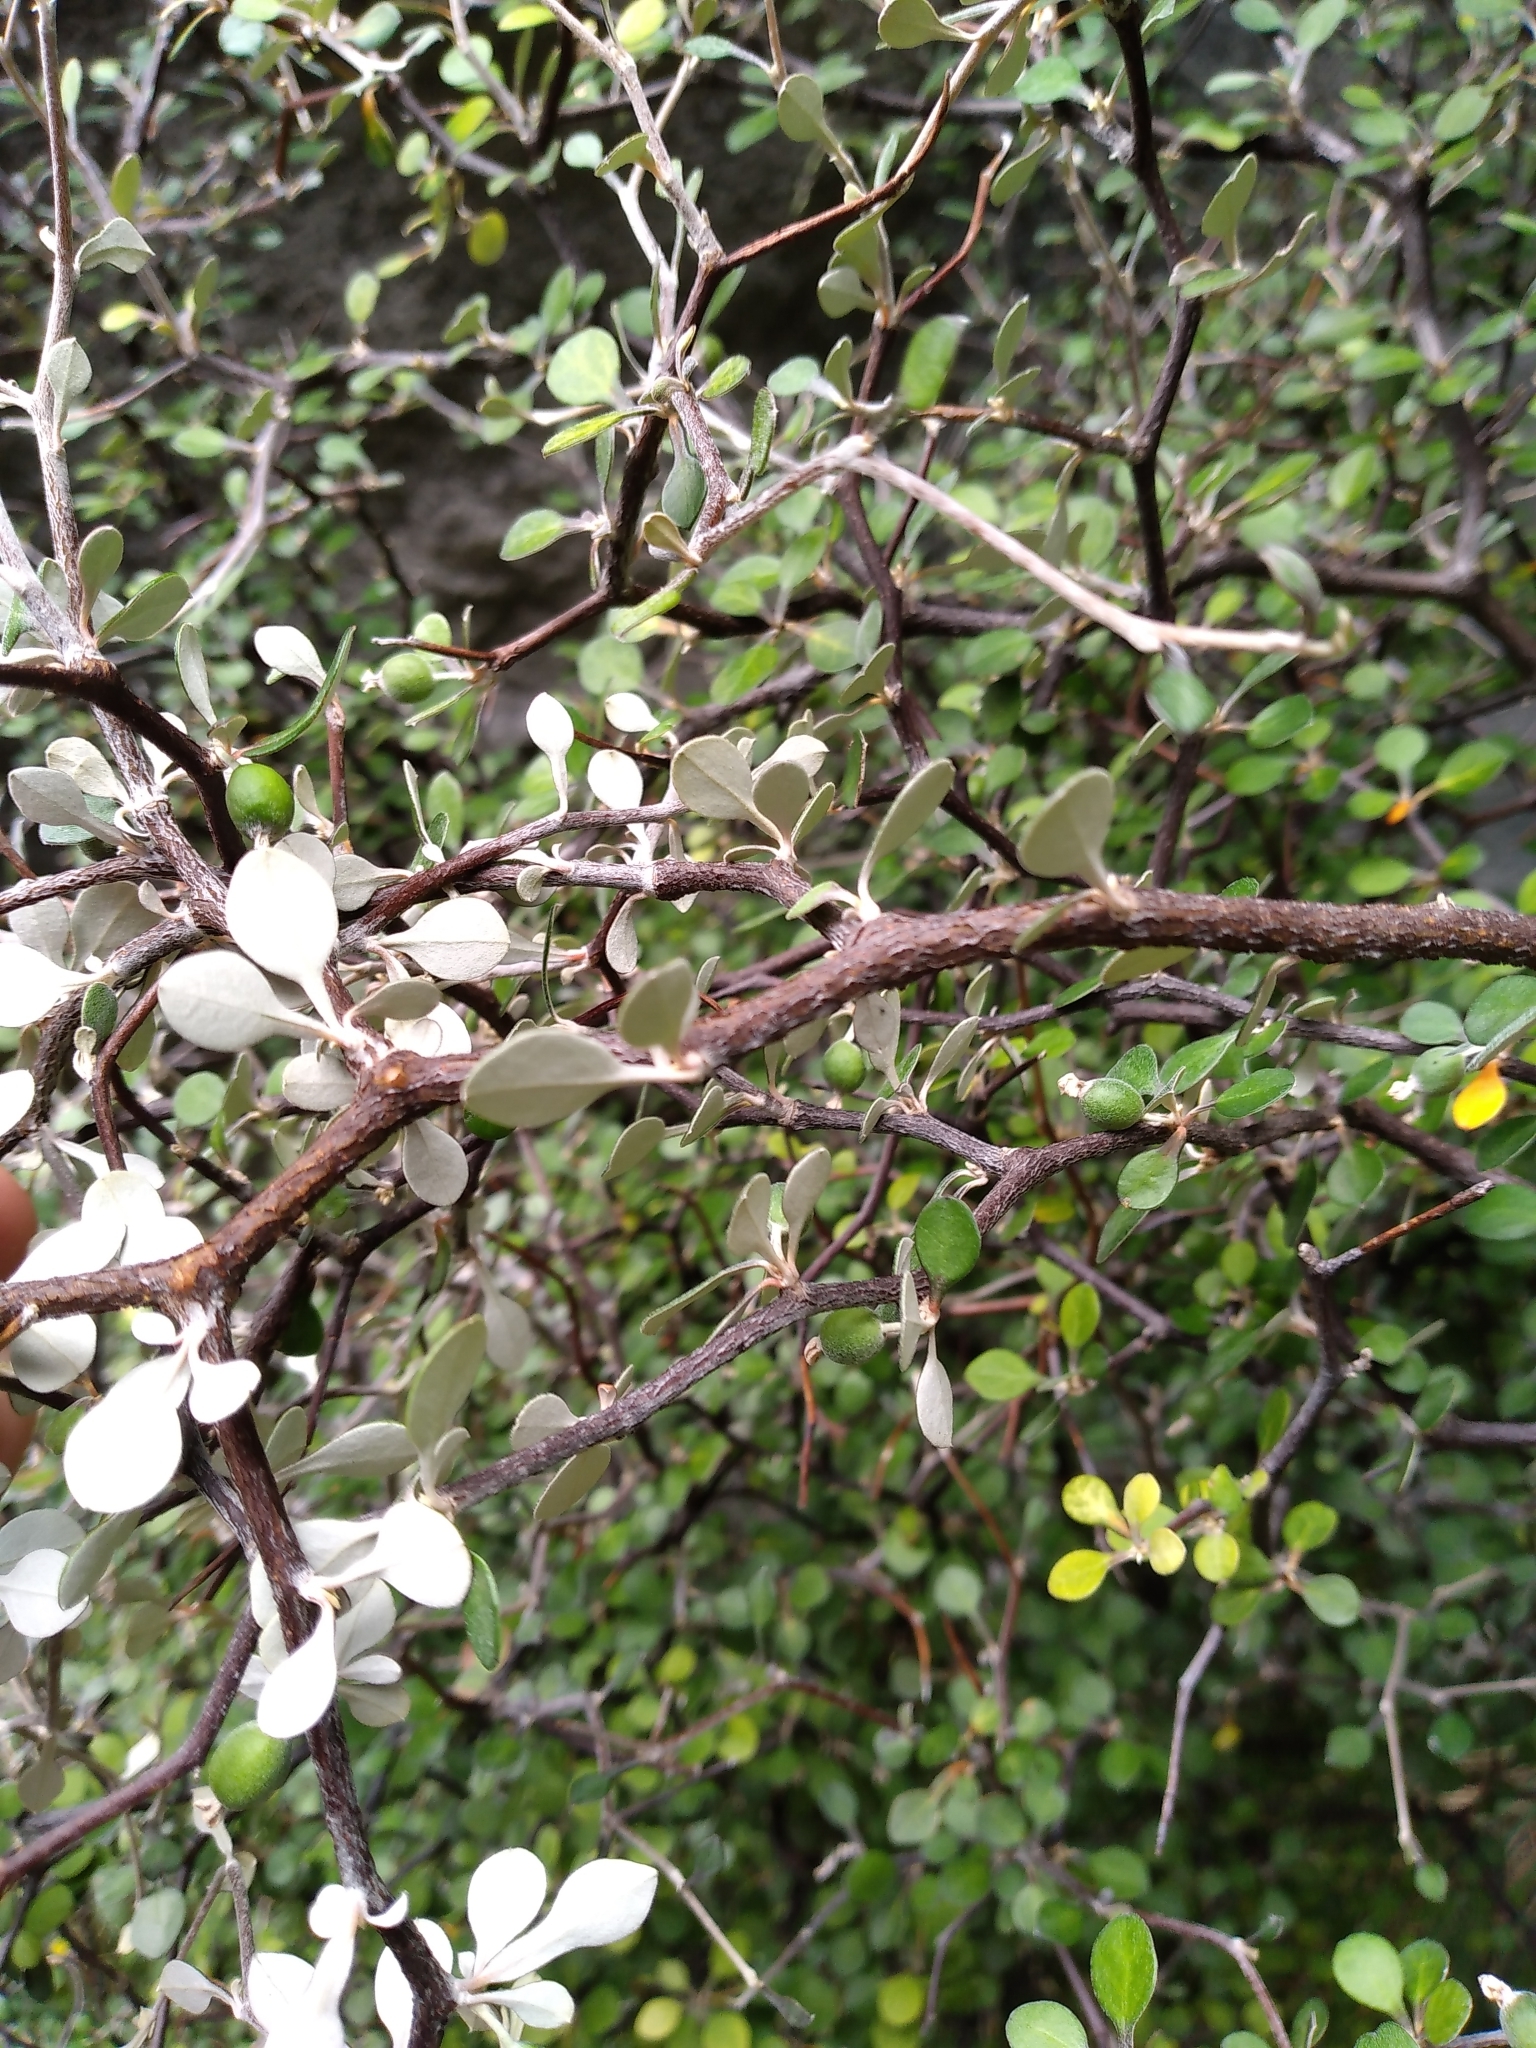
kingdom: Plantae
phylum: Tracheophyta
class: Magnoliopsida
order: Asterales
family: Argophyllaceae
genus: Corokia
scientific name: Corokia cotoneaster
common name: Wire nettingbush
